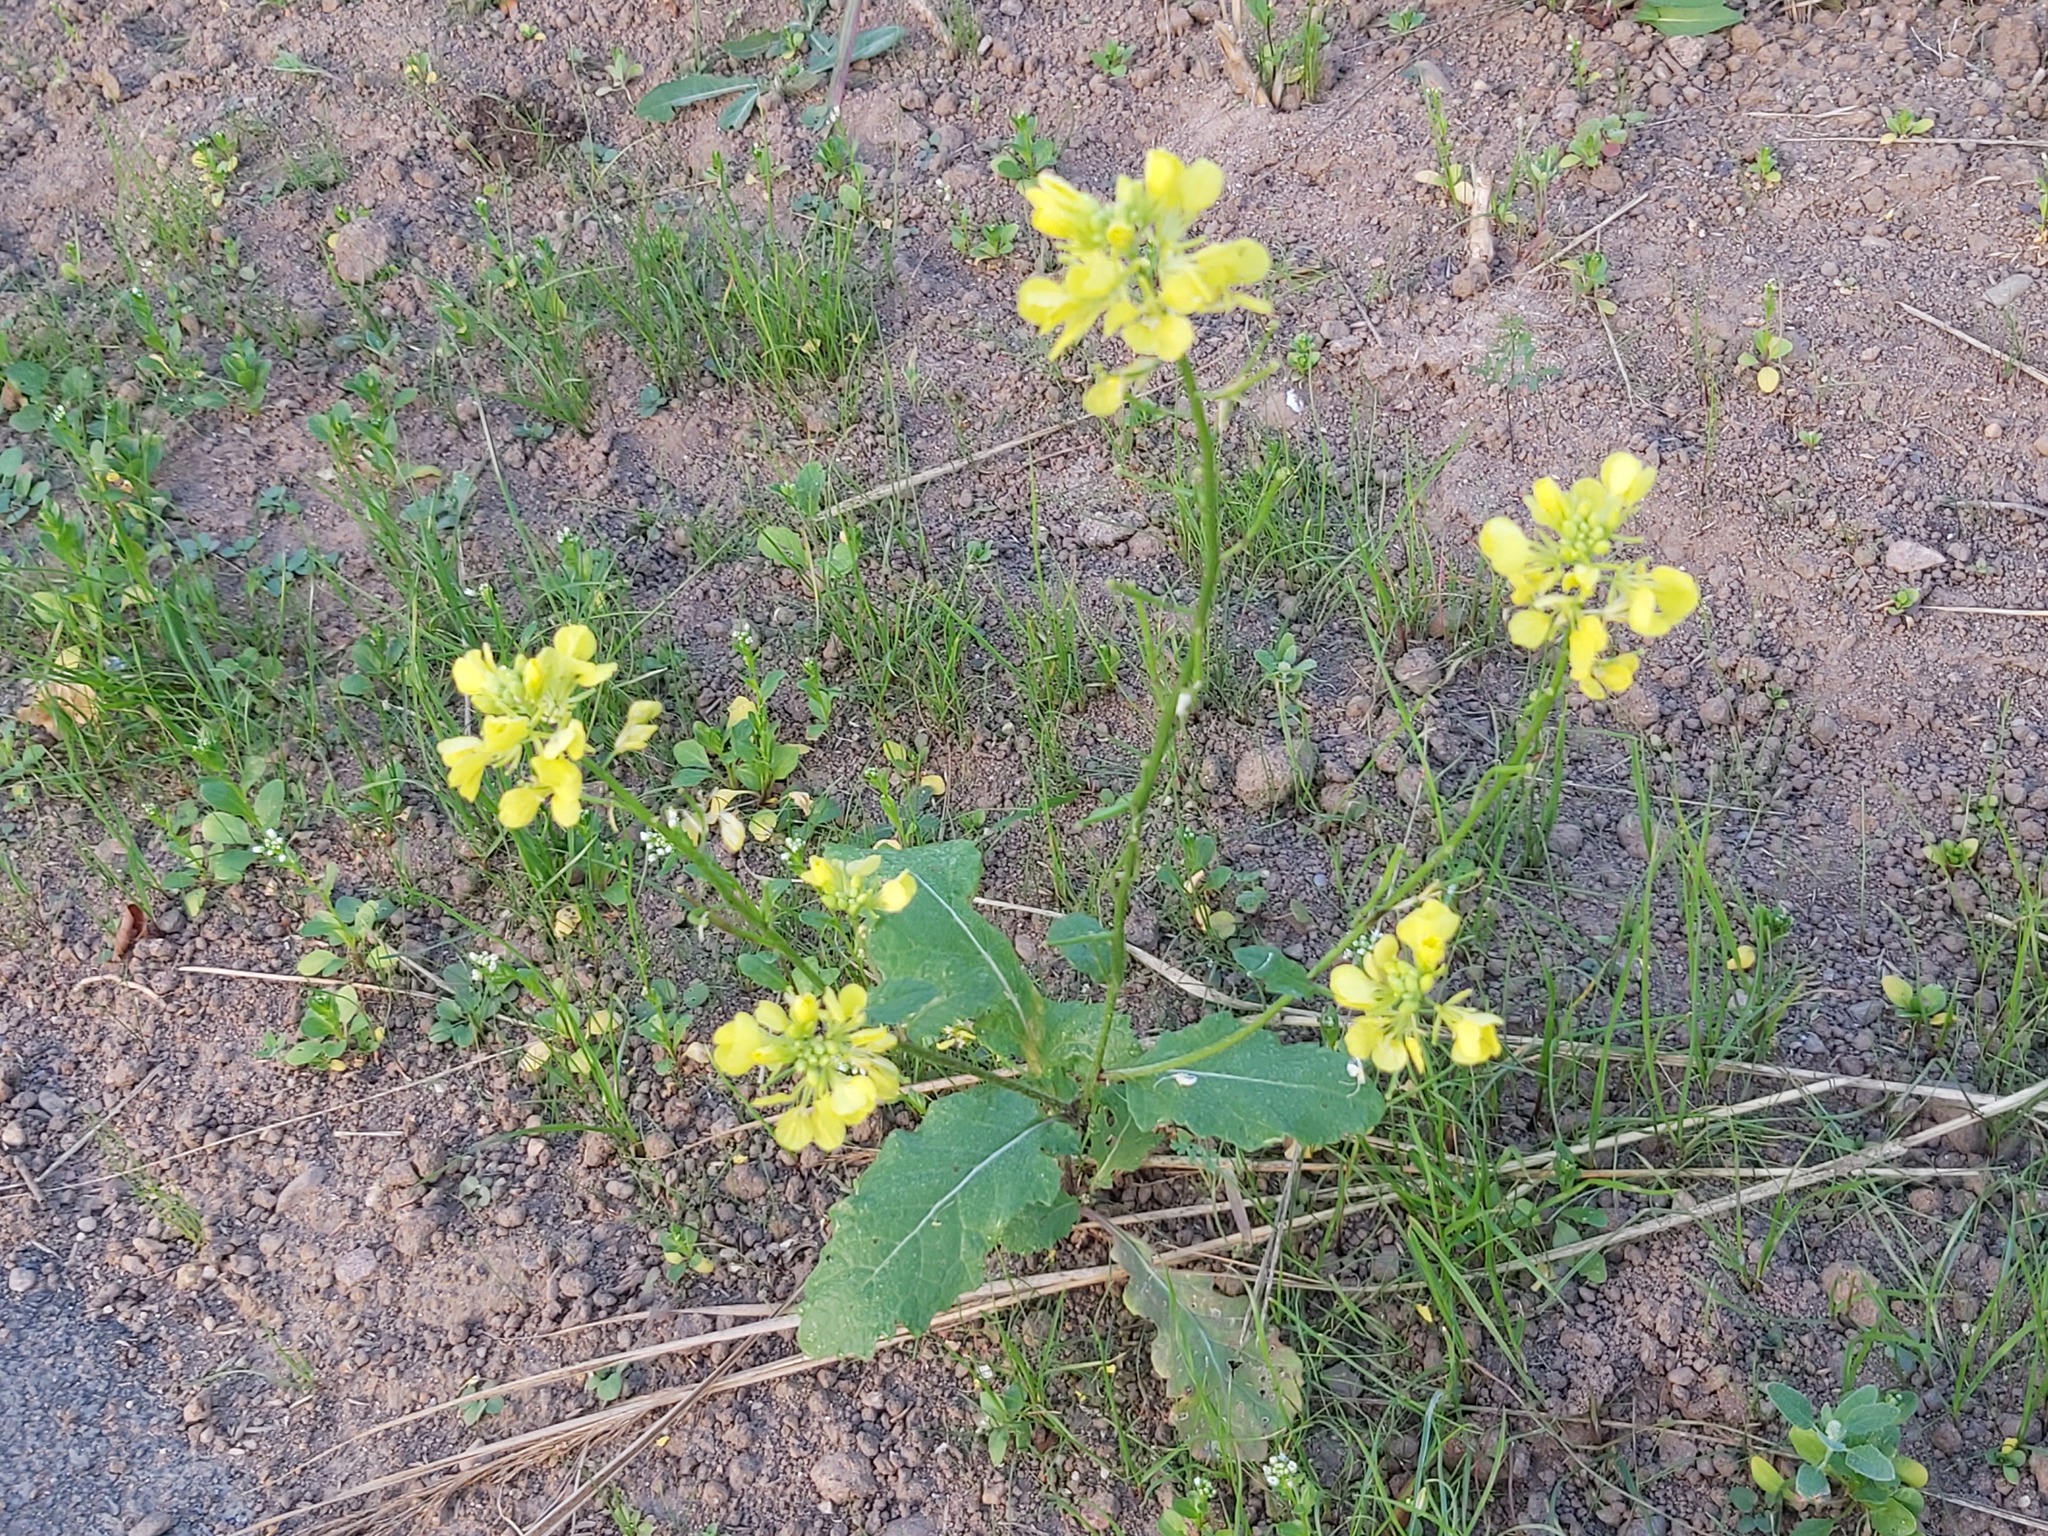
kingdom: Plantae
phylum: Tracheophyta
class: Magnoliopsida
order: Brassicales
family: Brassicaceae
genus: Sinapis
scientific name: Sinapis arvensis
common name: Charlock
